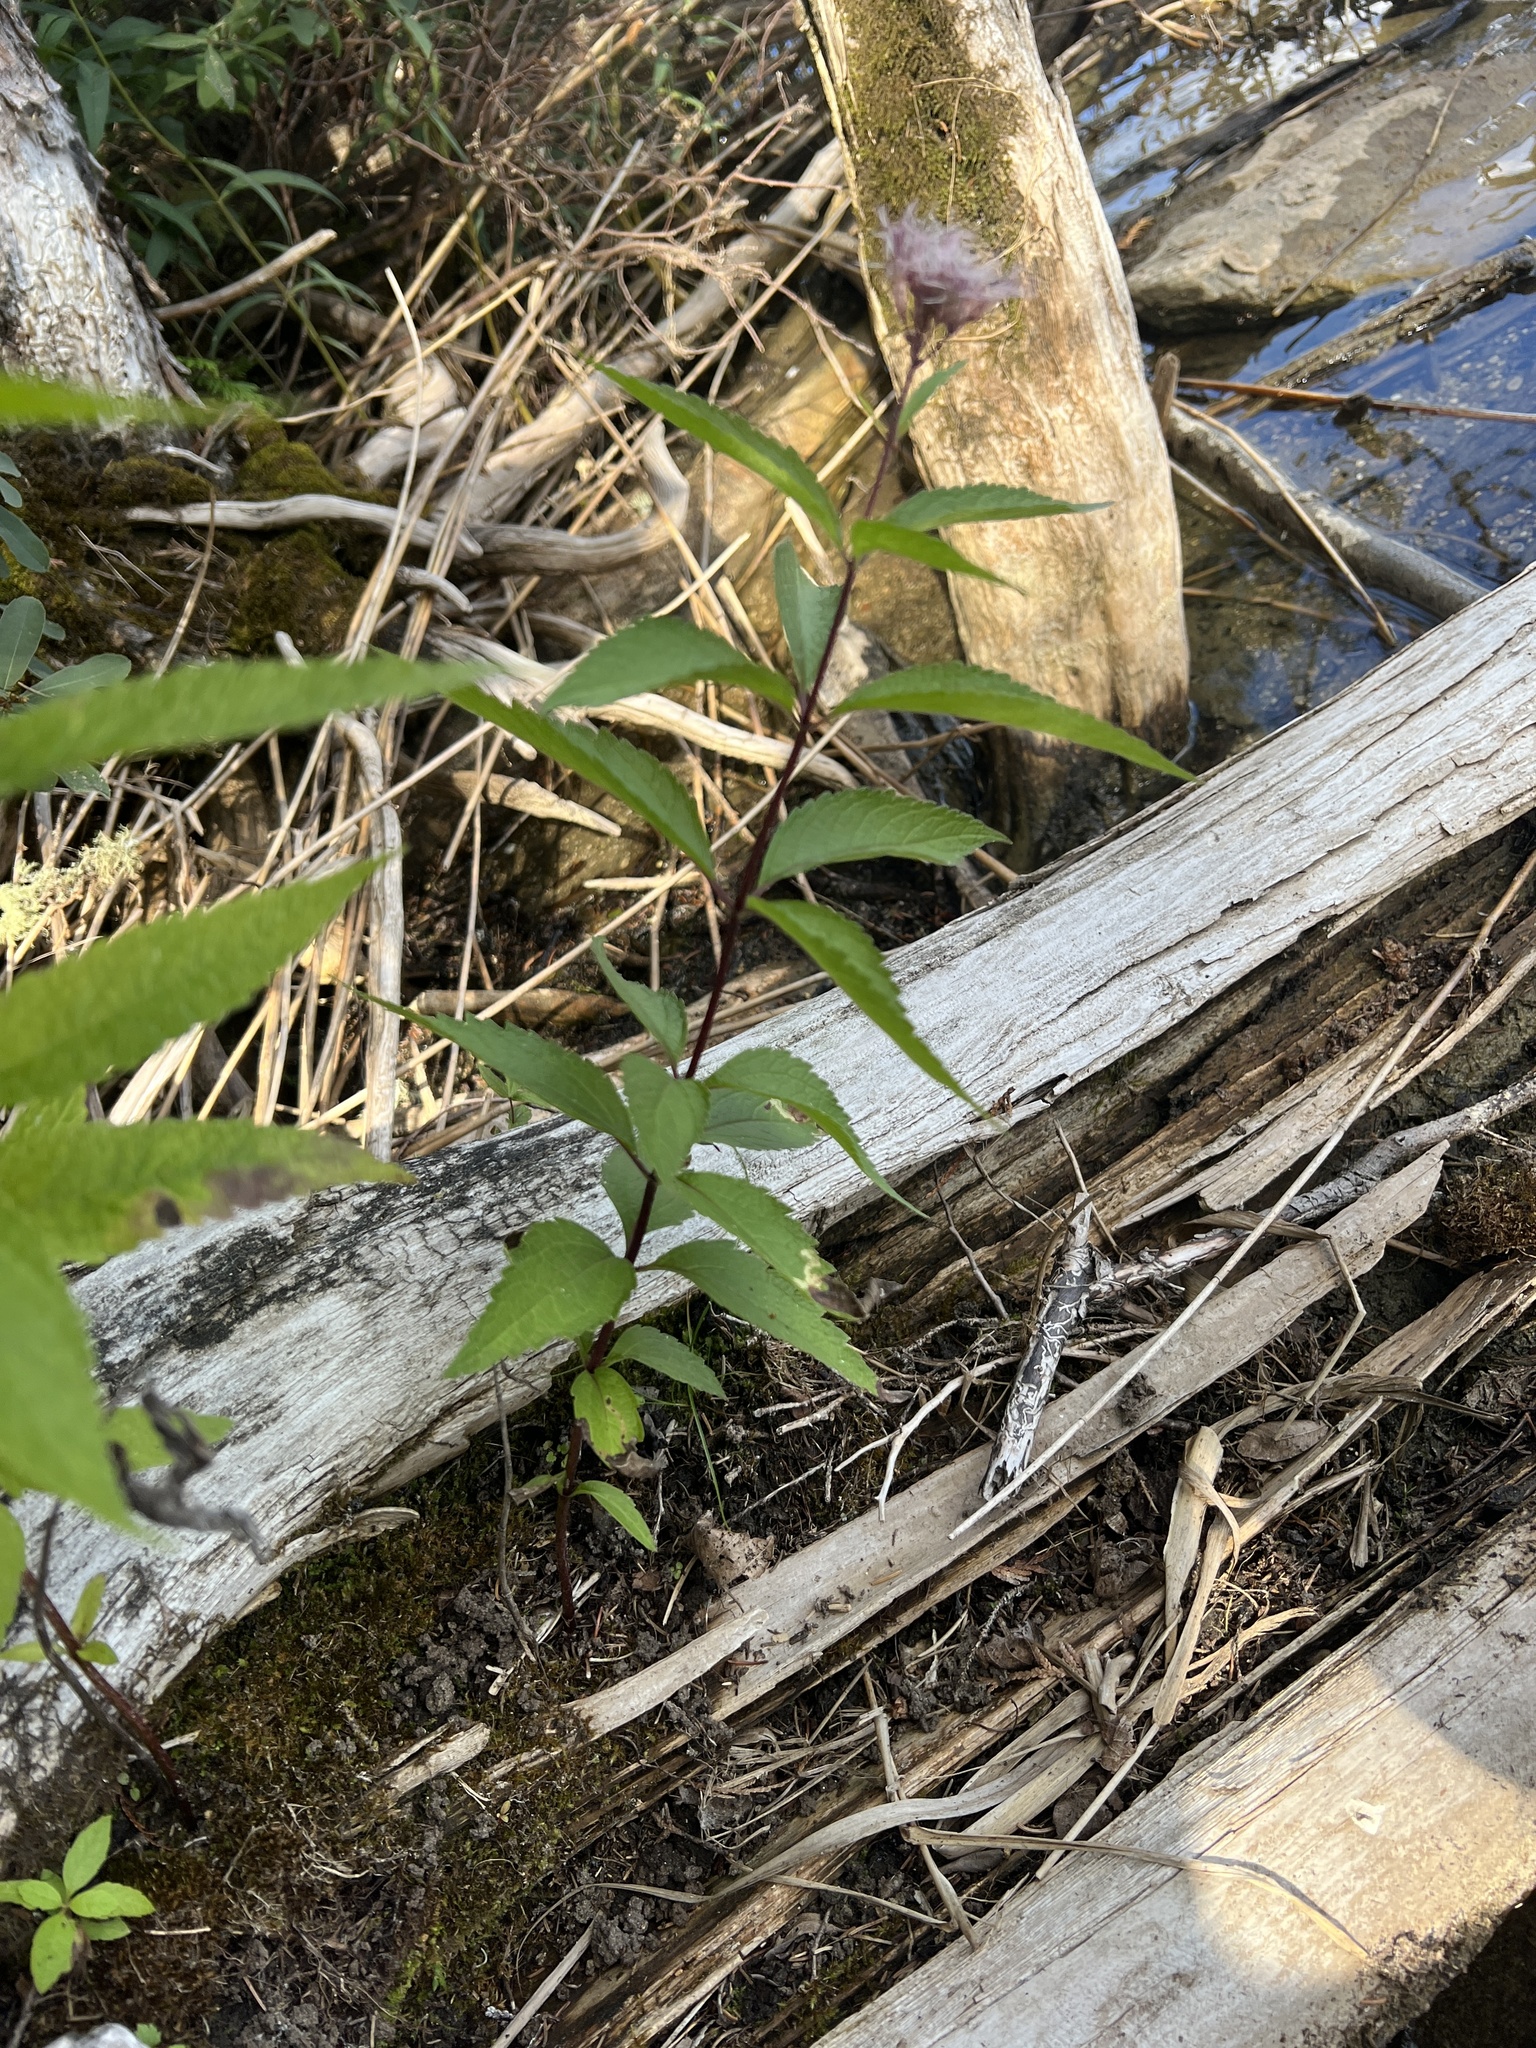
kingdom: Plantae
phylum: Tracheophyta
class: Magnoliopsida
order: Asterales
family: Asteraceae
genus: Eutrochium
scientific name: Eutrochium maculatum
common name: Spotted joe pye weed
